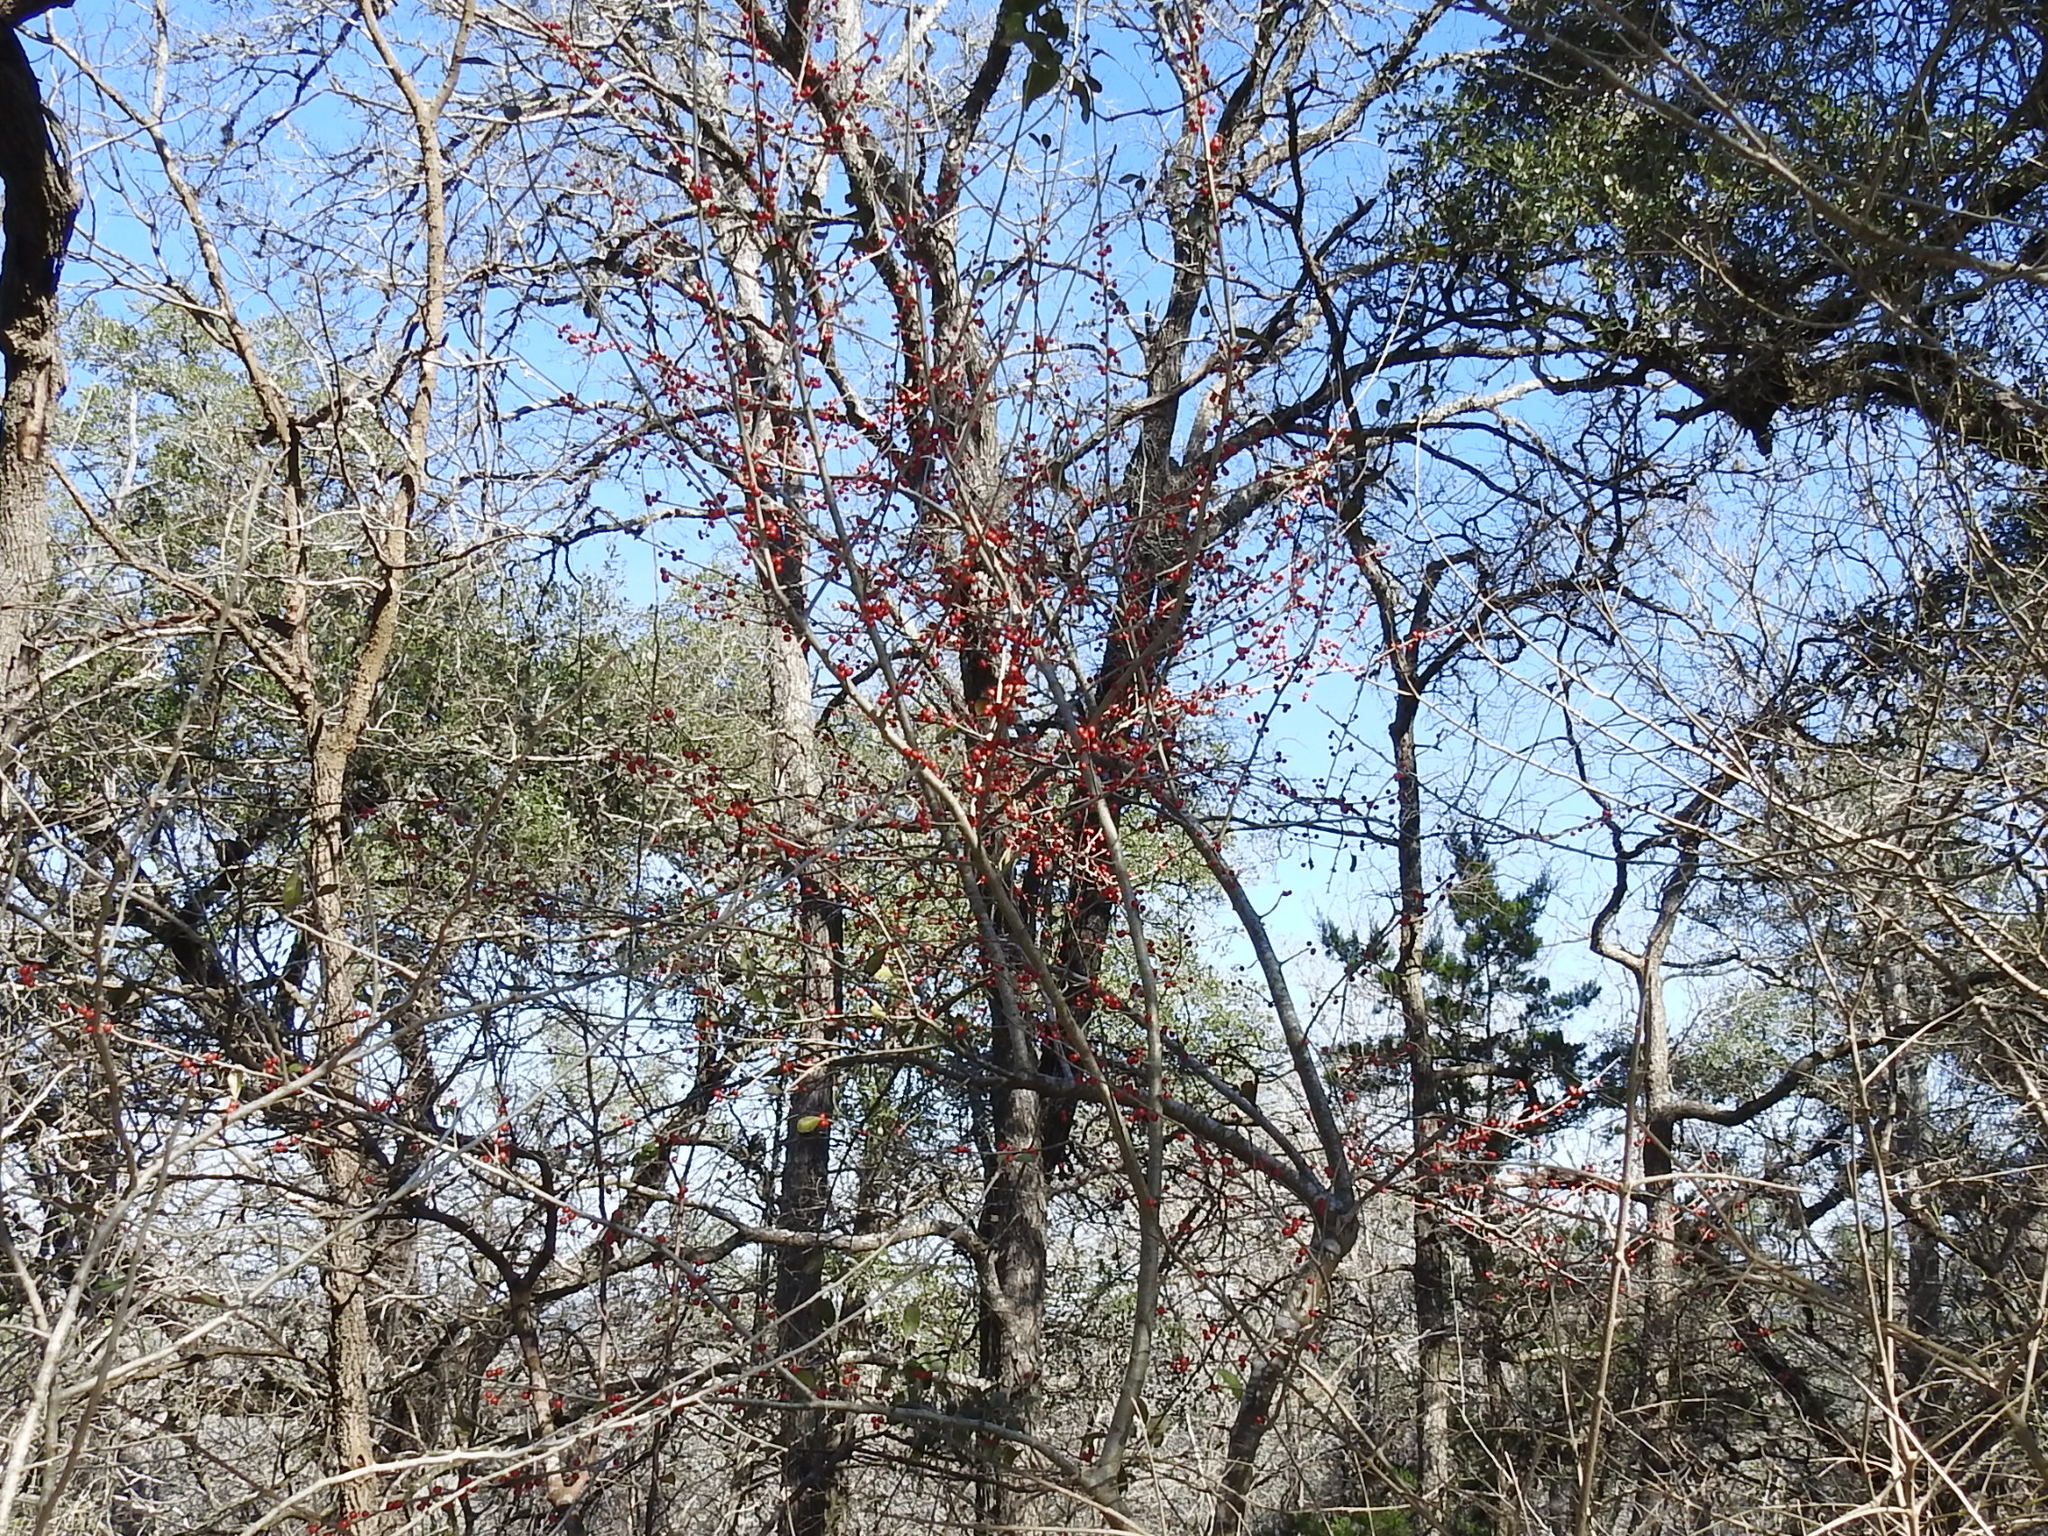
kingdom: Plantae
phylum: Tracheophyta
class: Magnoliopsida
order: Aquifoliales
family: Aquifoliaceae
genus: Ilex
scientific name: Ilex decidua
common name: Possum-haw
